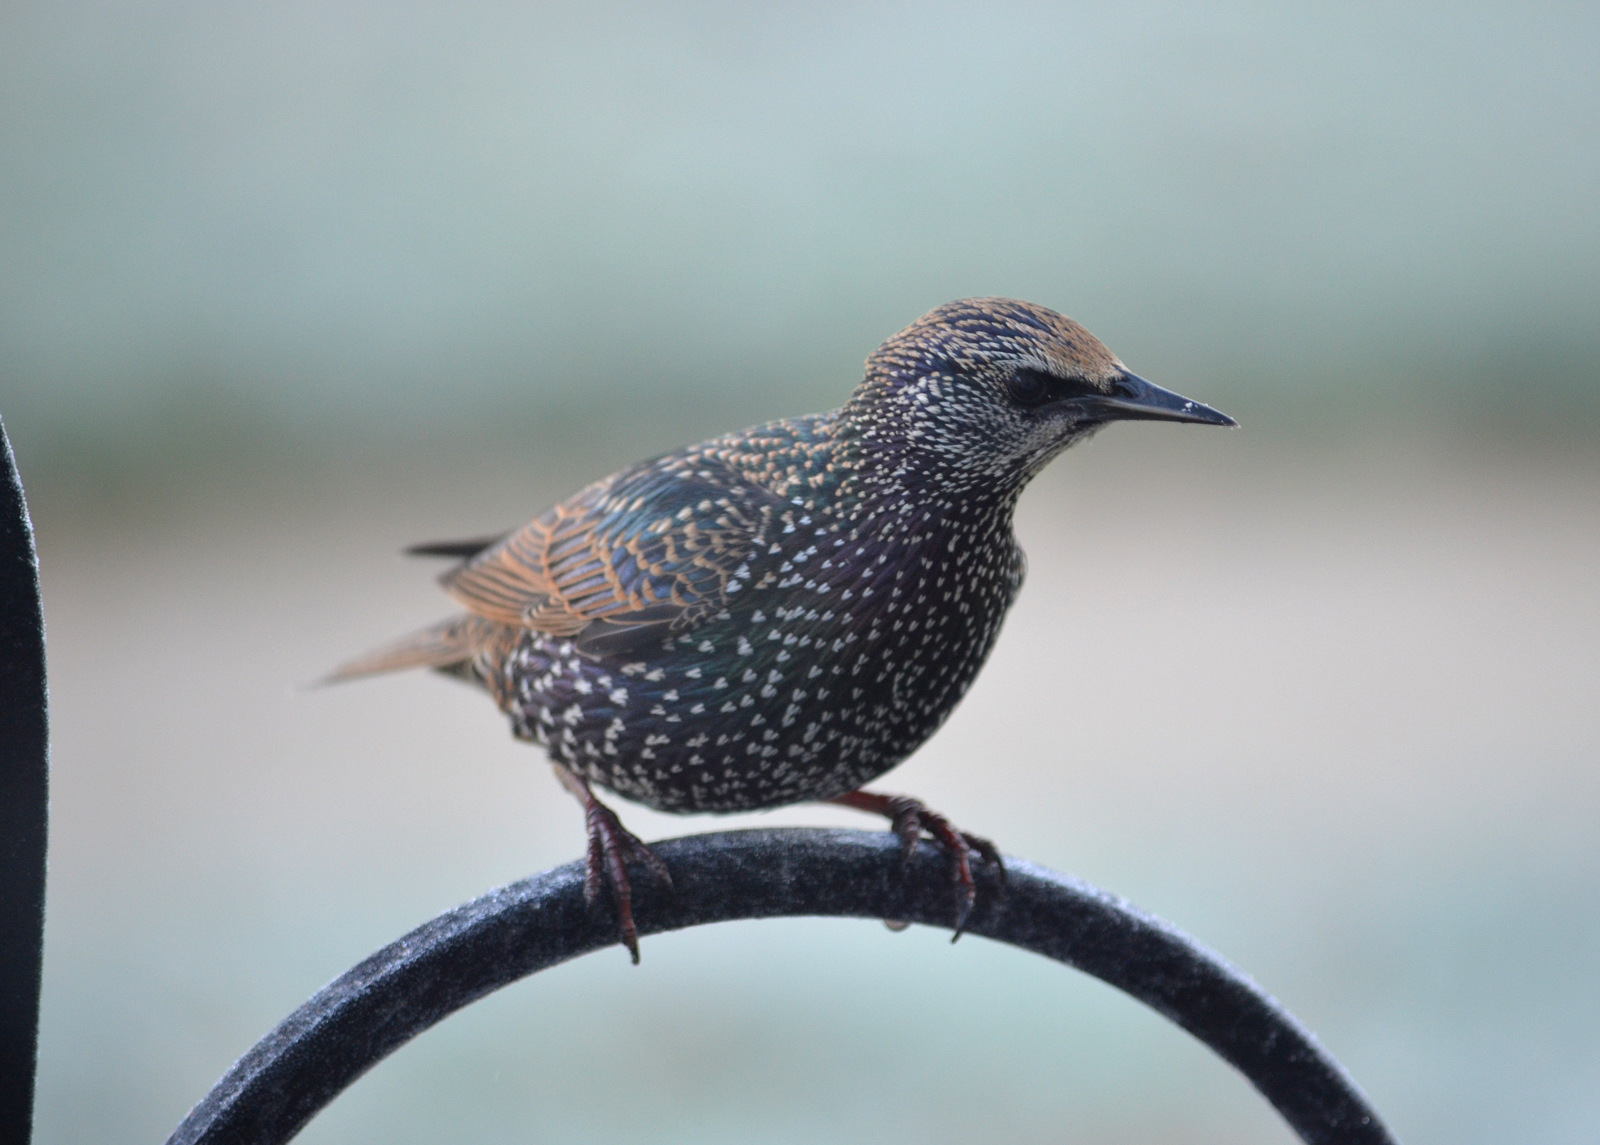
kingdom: Animalia
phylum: Chordata
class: Aves
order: Passeriformes
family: Sturnidae
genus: Sturnus
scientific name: Sturnus vulgaris
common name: Common starling
